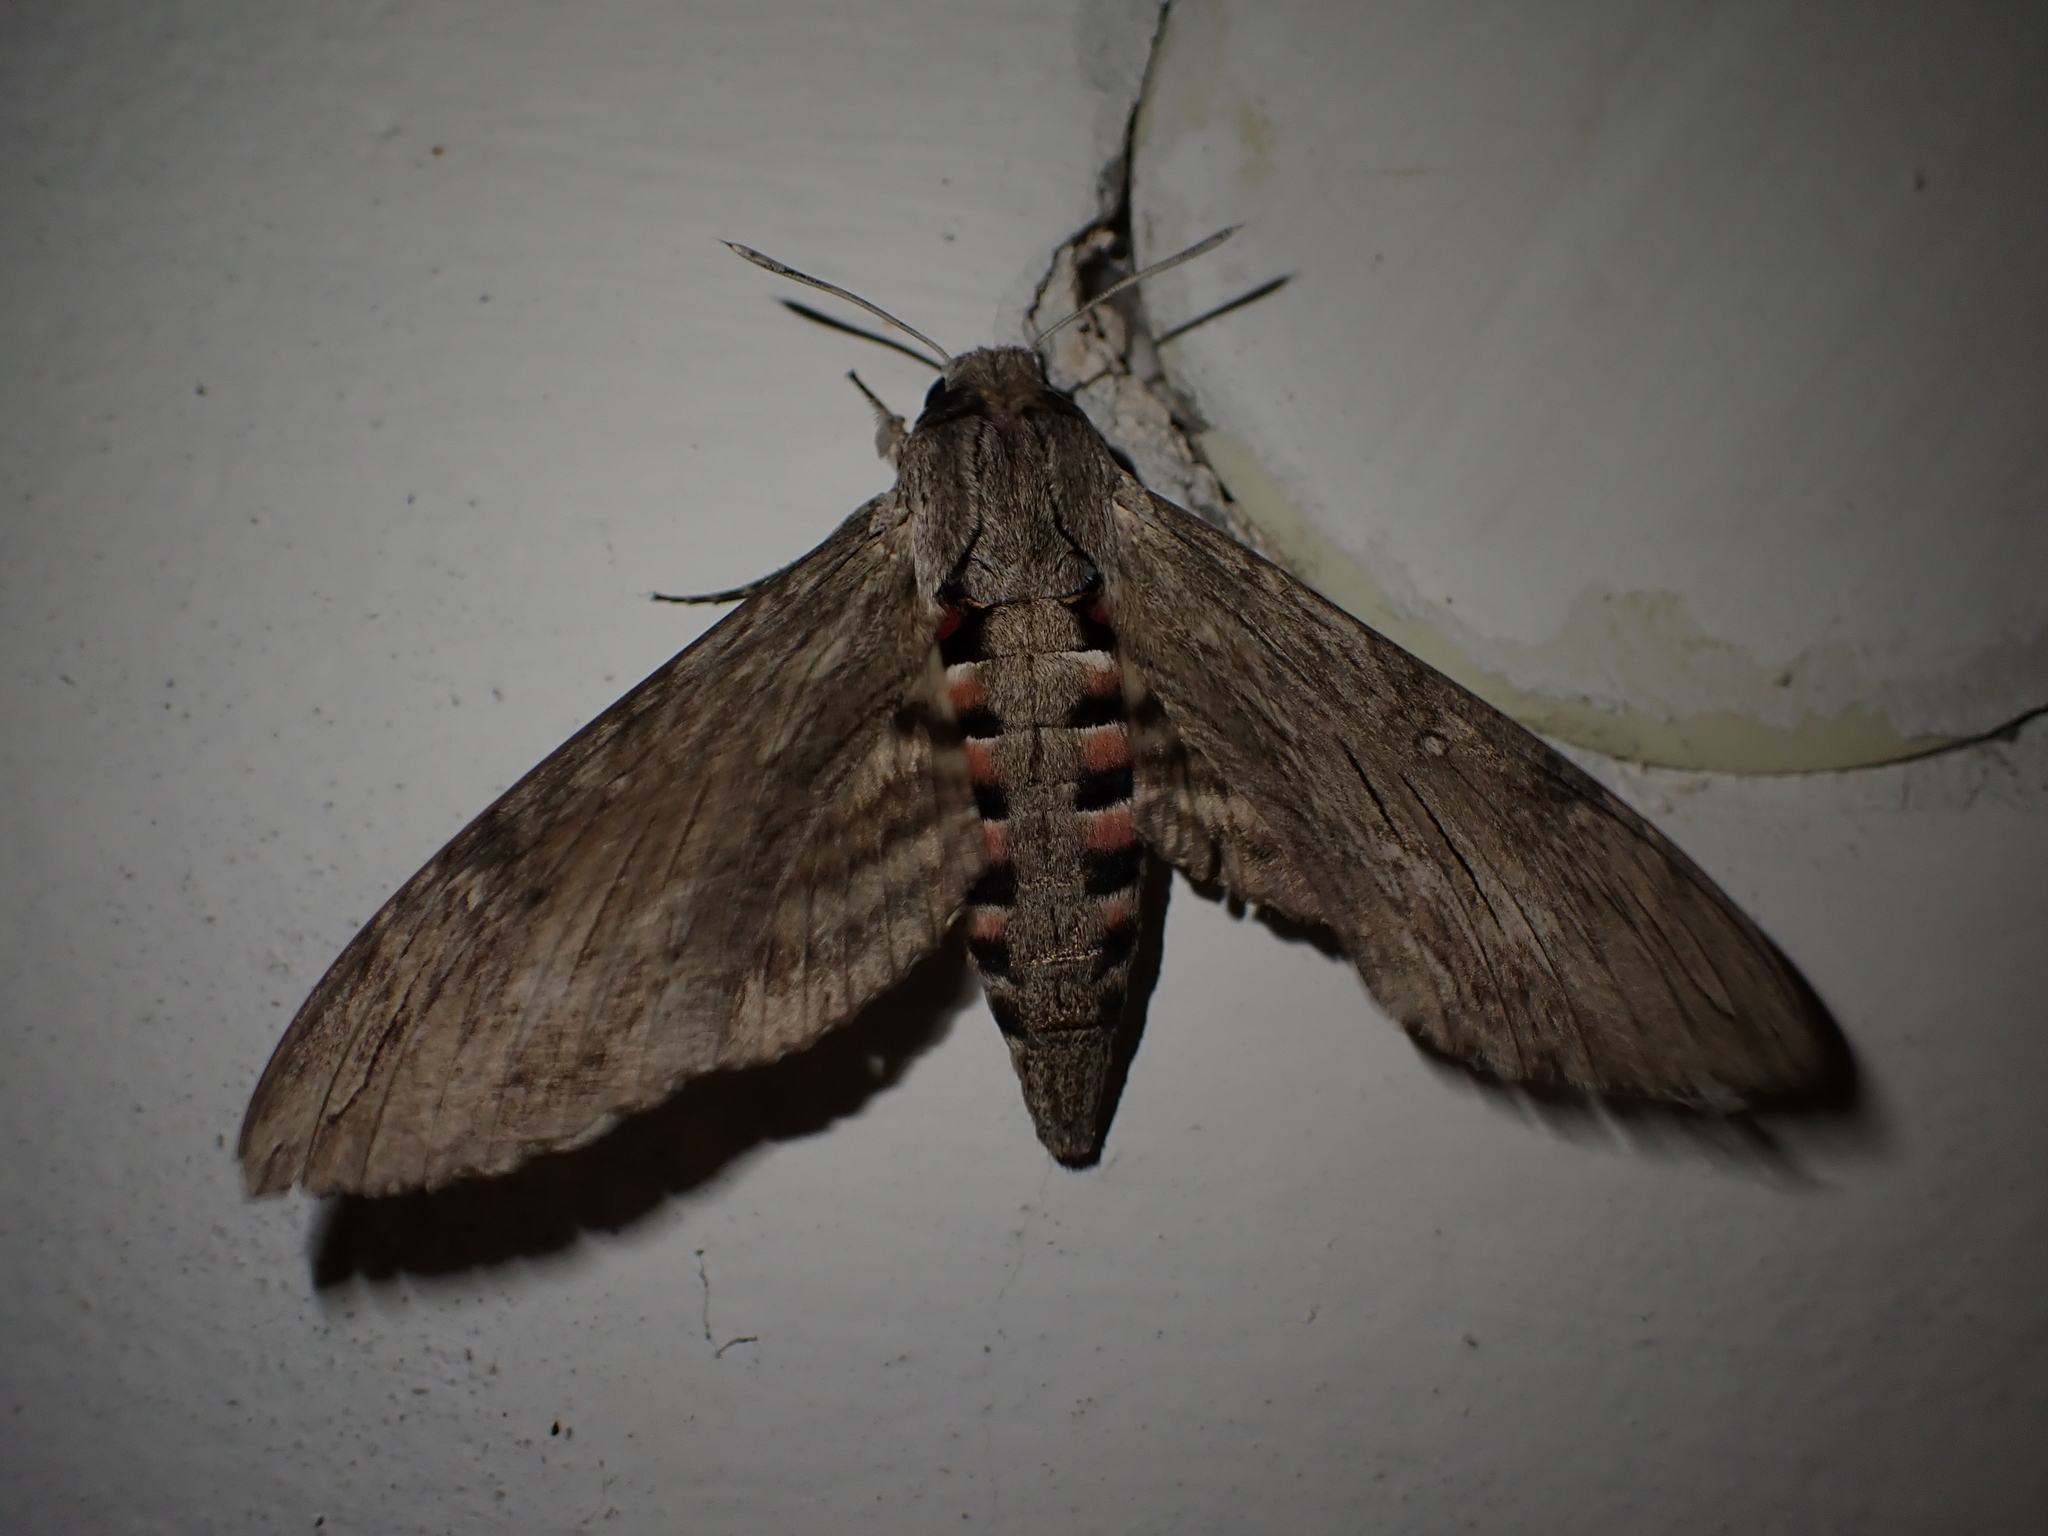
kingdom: Animalia
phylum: Arthropoda
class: Insecta
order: Lepidoptera
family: Sphingidae
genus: Agrius
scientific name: Agrius convolvuli
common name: Convolvulus hawkmoth
